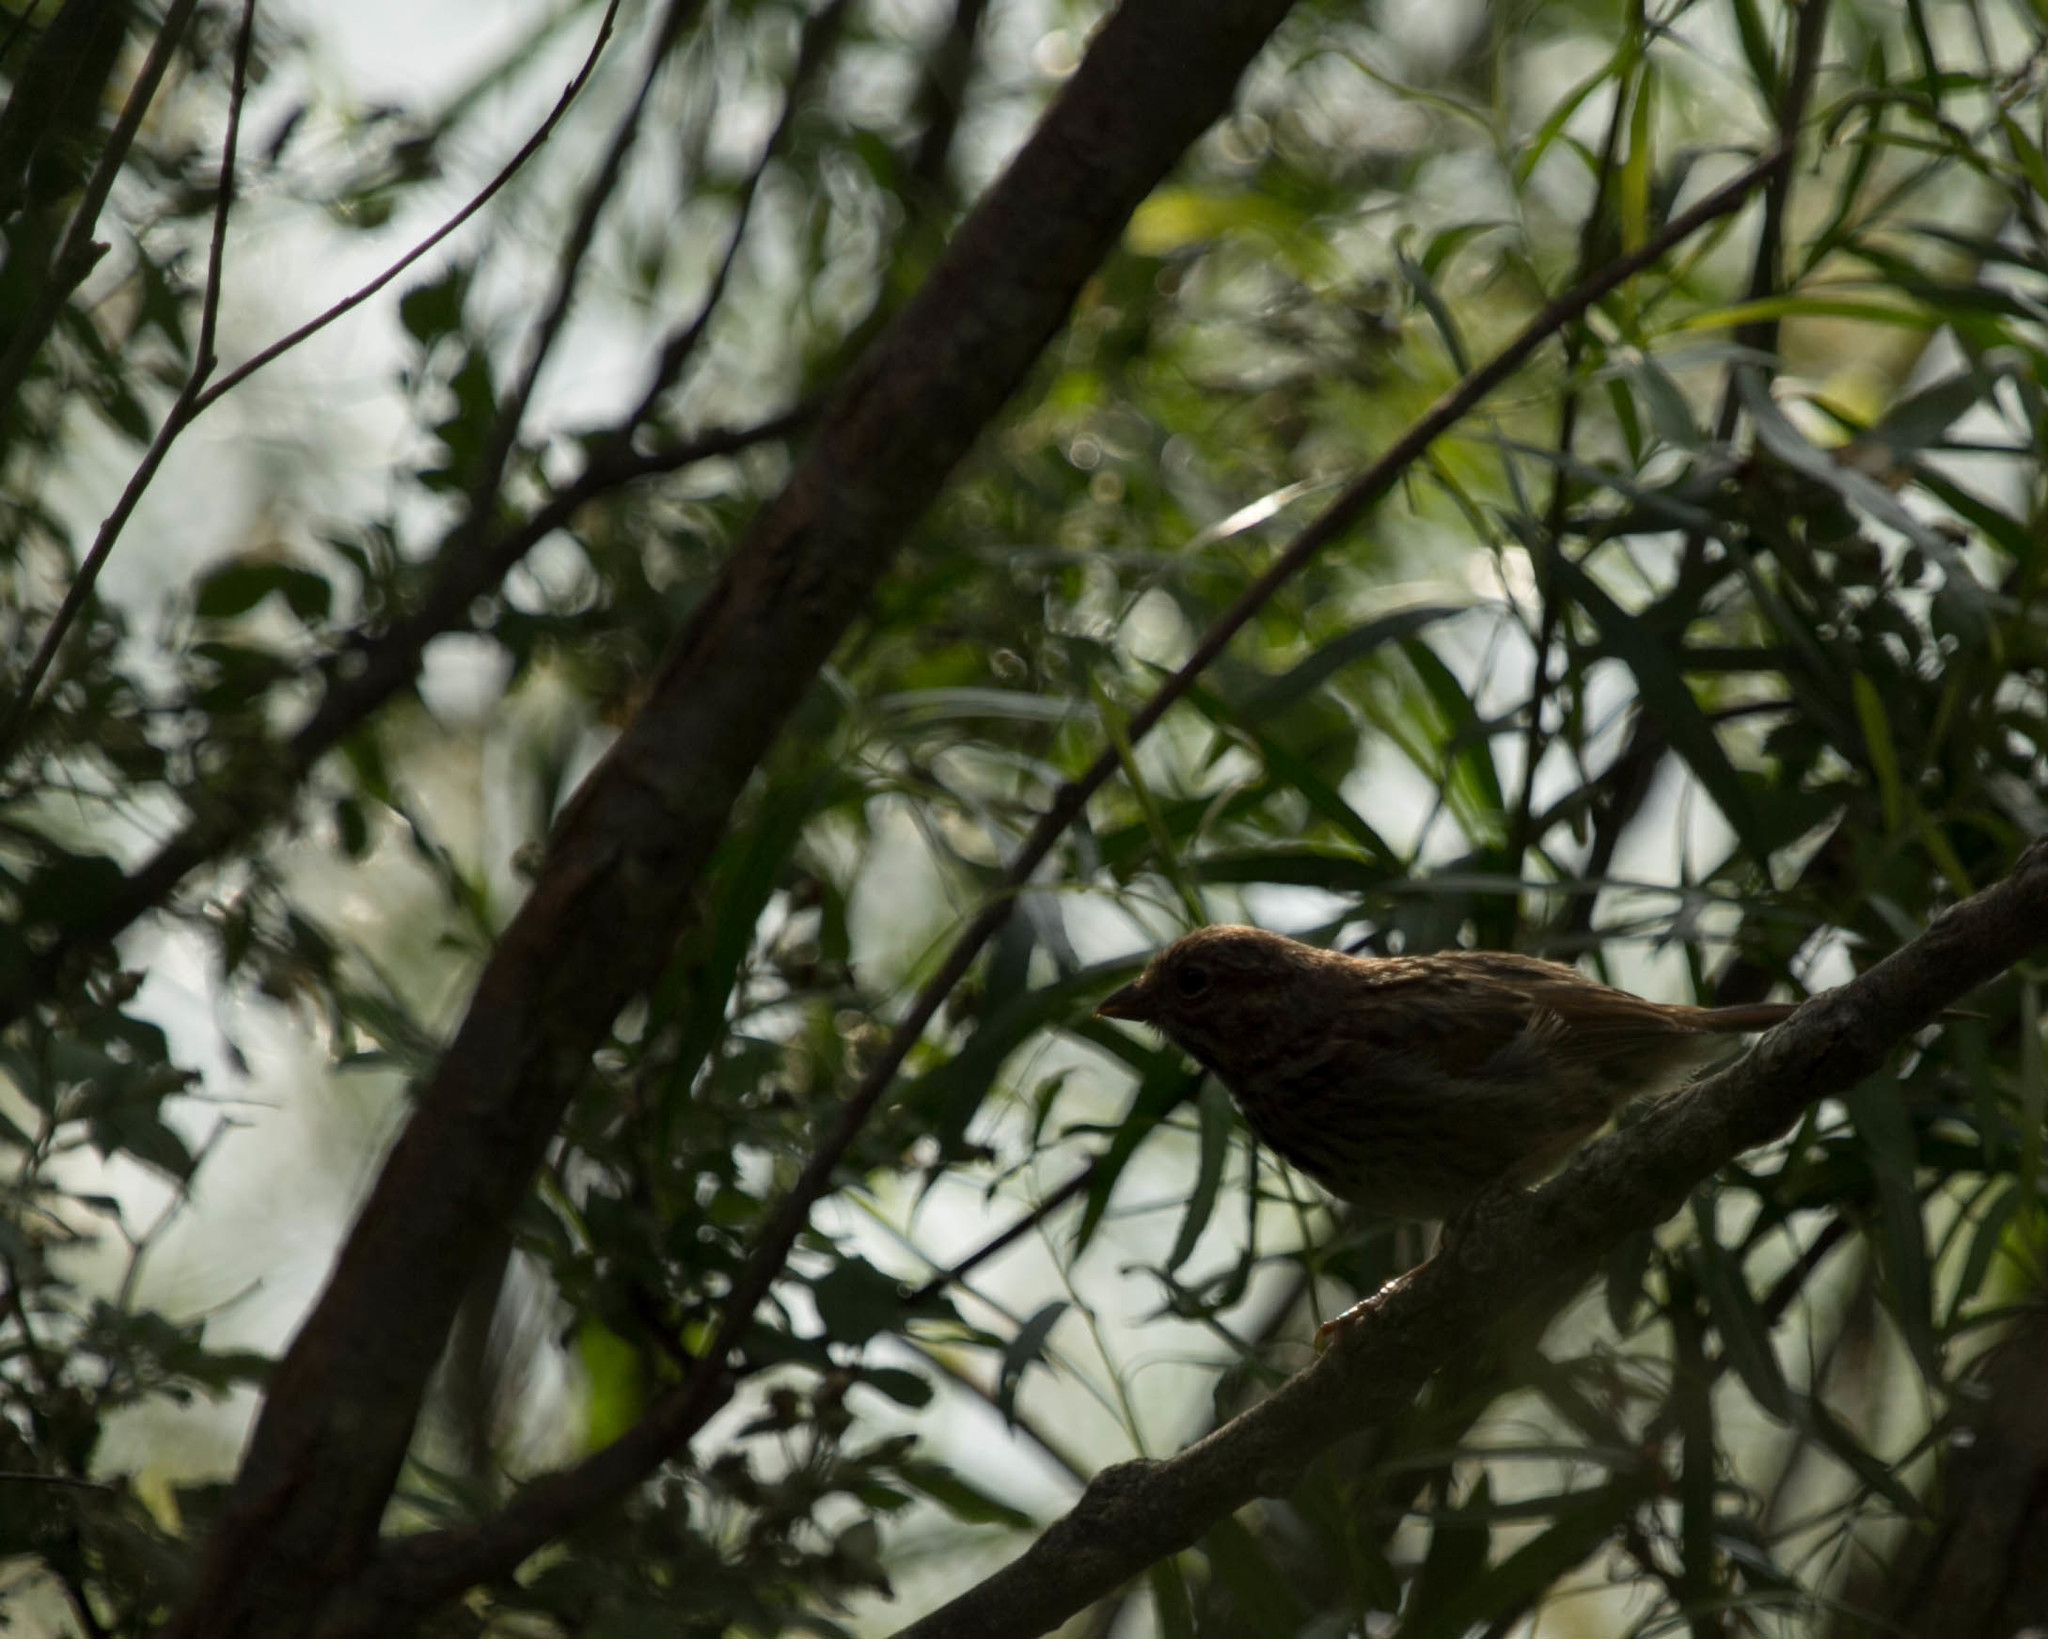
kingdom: Animalia
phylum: Chordata
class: Aves
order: Passeriformes
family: Passerellidae
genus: Melospiza
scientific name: Melospiza melodia
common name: Song sparrow
